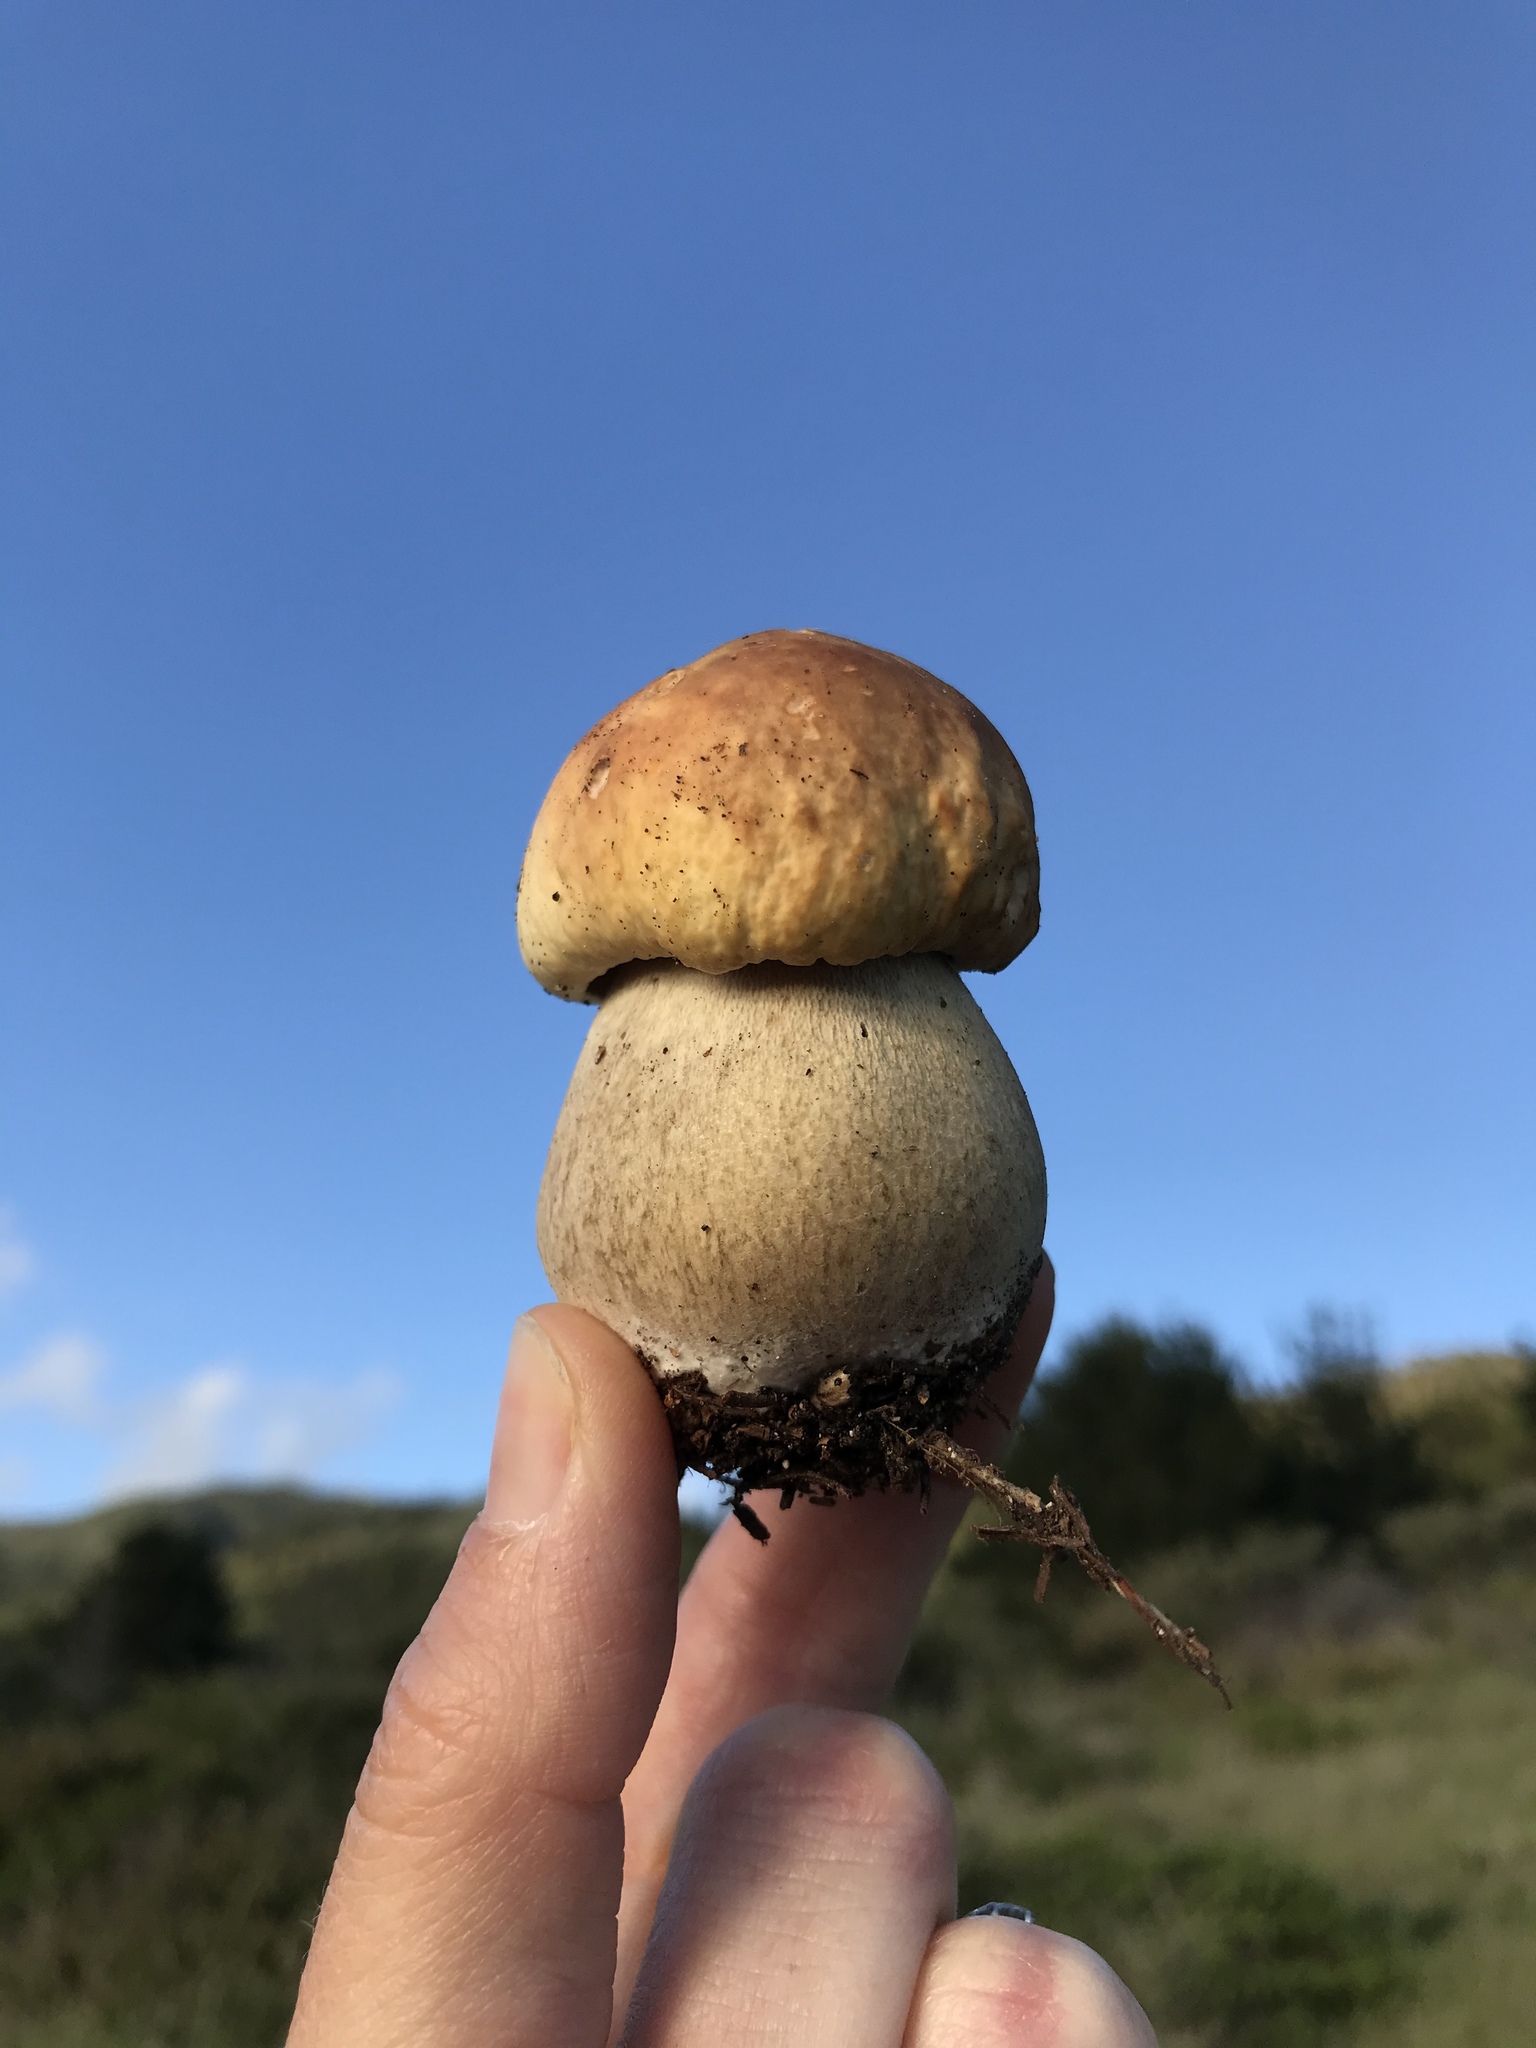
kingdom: Fungi
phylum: Basidiomycota
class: Agaricomycetes
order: Boletales
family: Boletaceae
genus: Boletus
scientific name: Boletus edulis
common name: Cep
